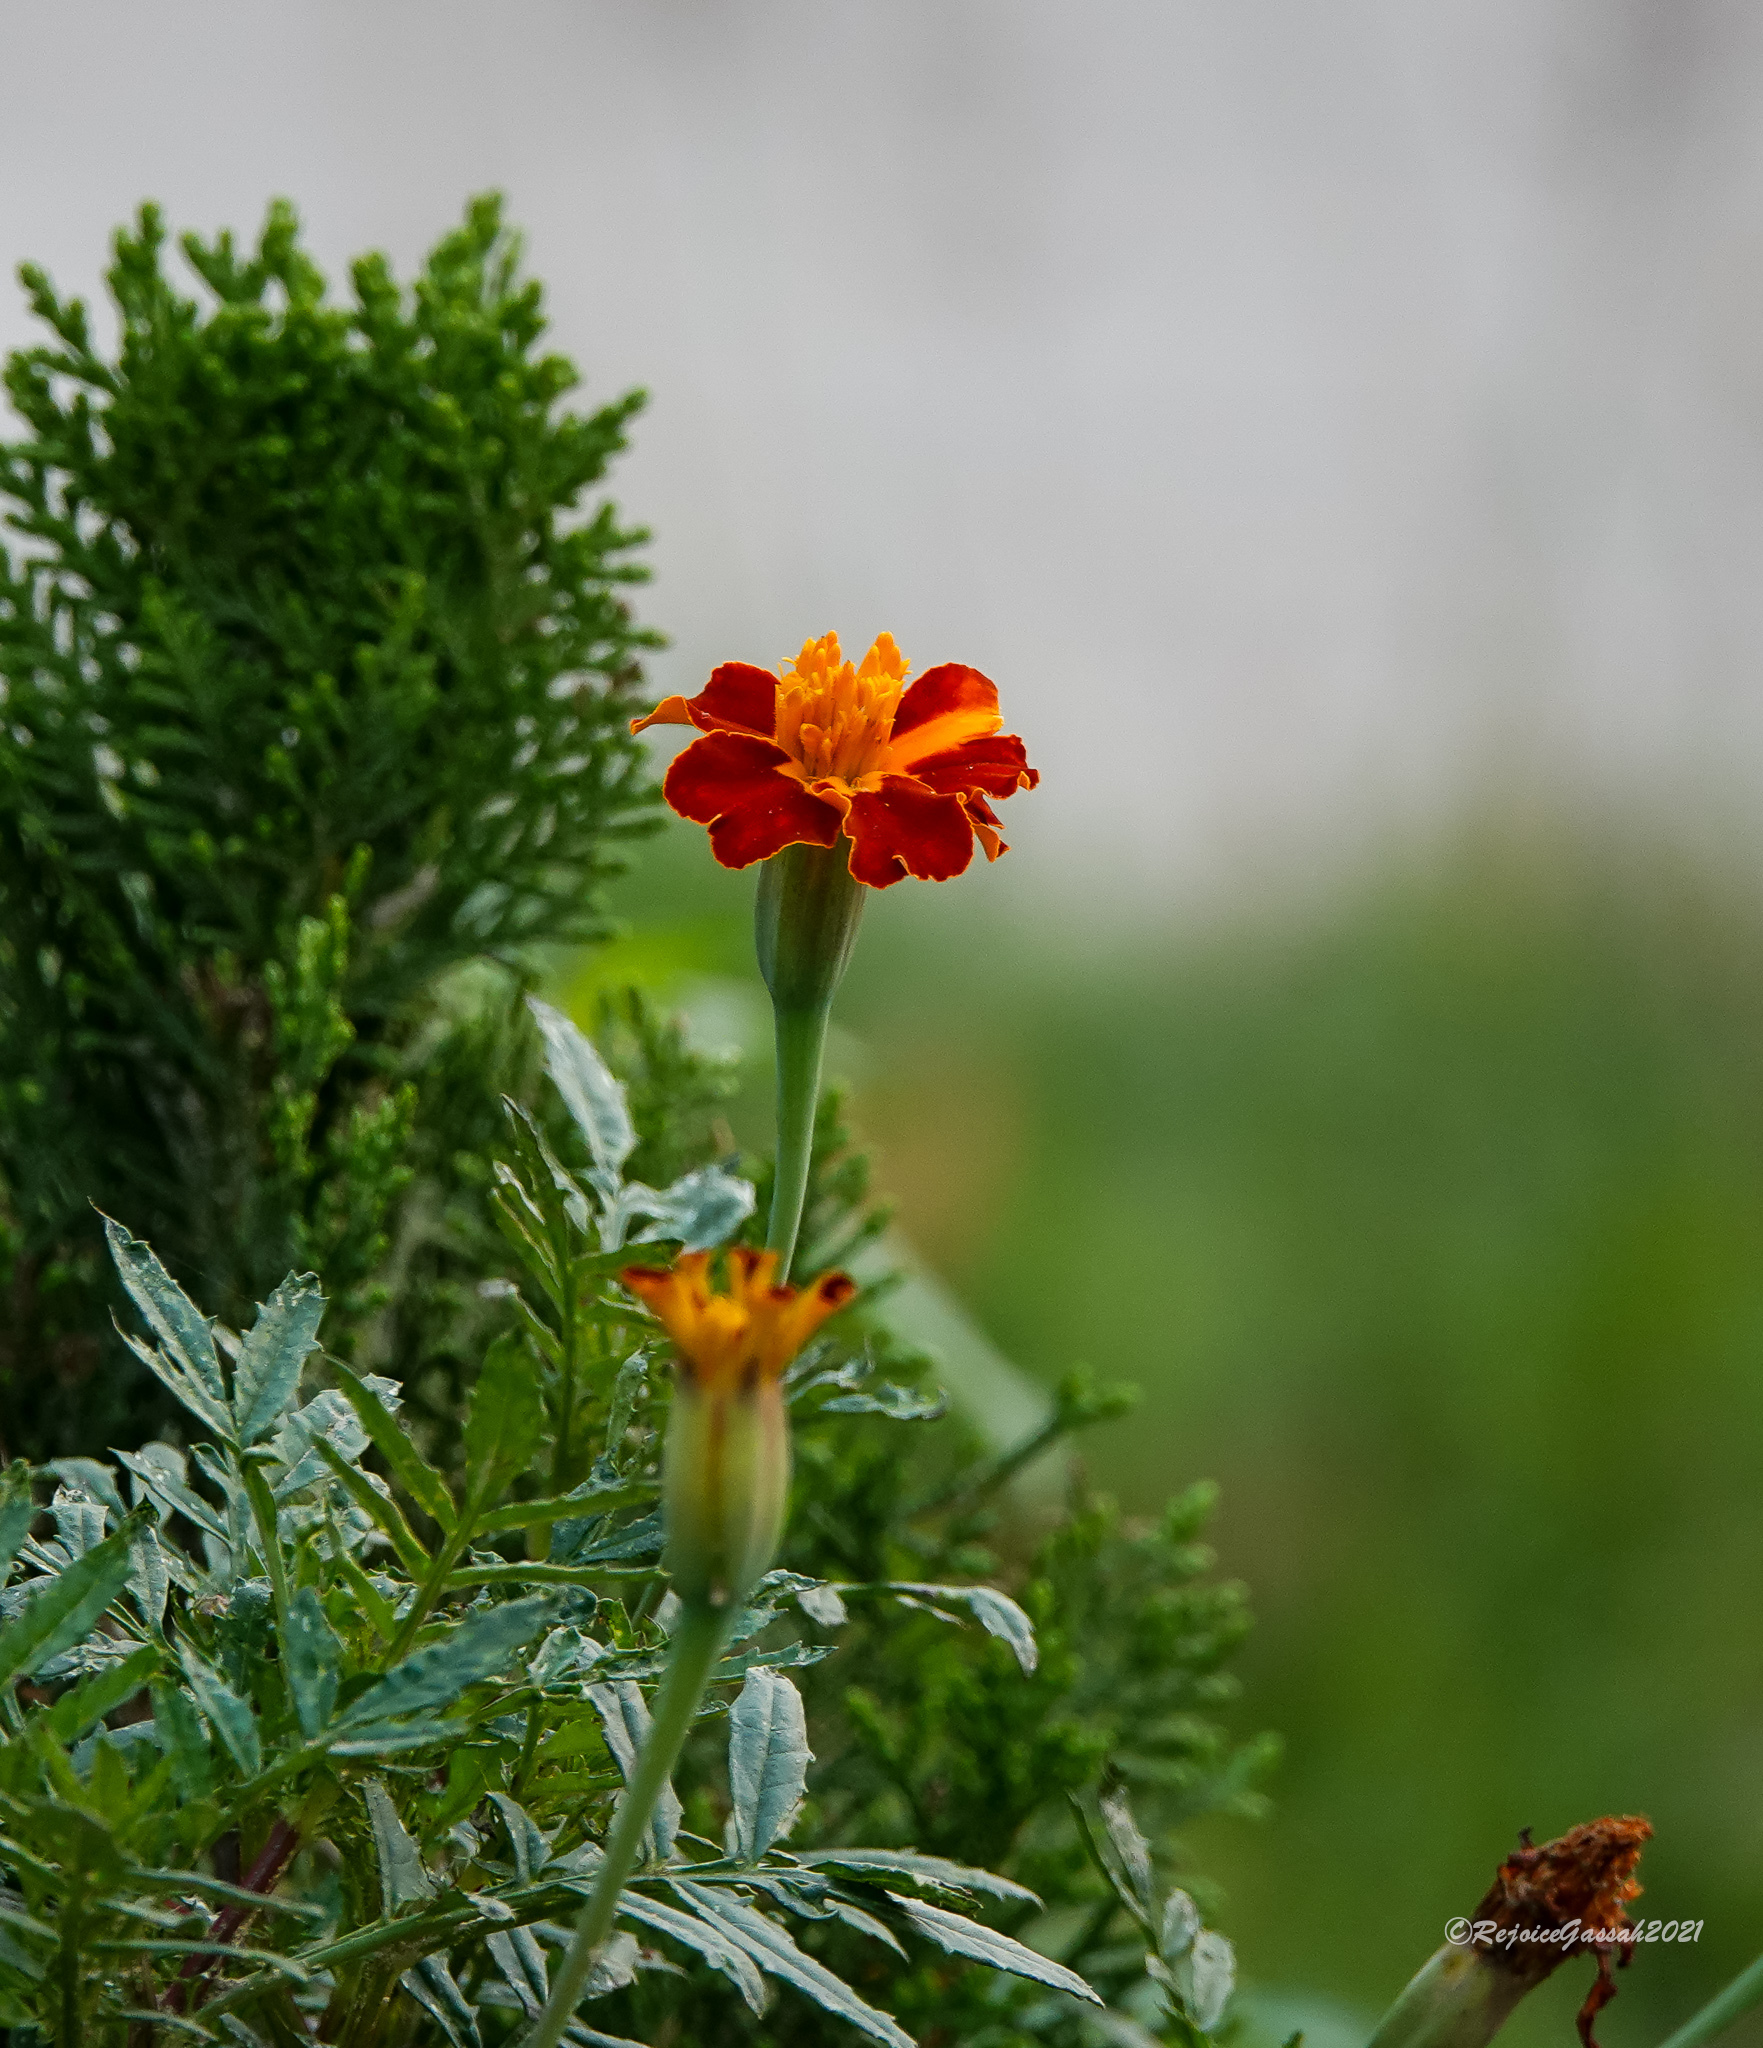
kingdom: Plantae
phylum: Tracheophyta
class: Magnoliopsida
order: Asterales
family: Asteraceae
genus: Tagetes
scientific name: Tagetes erecta
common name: African marigold
